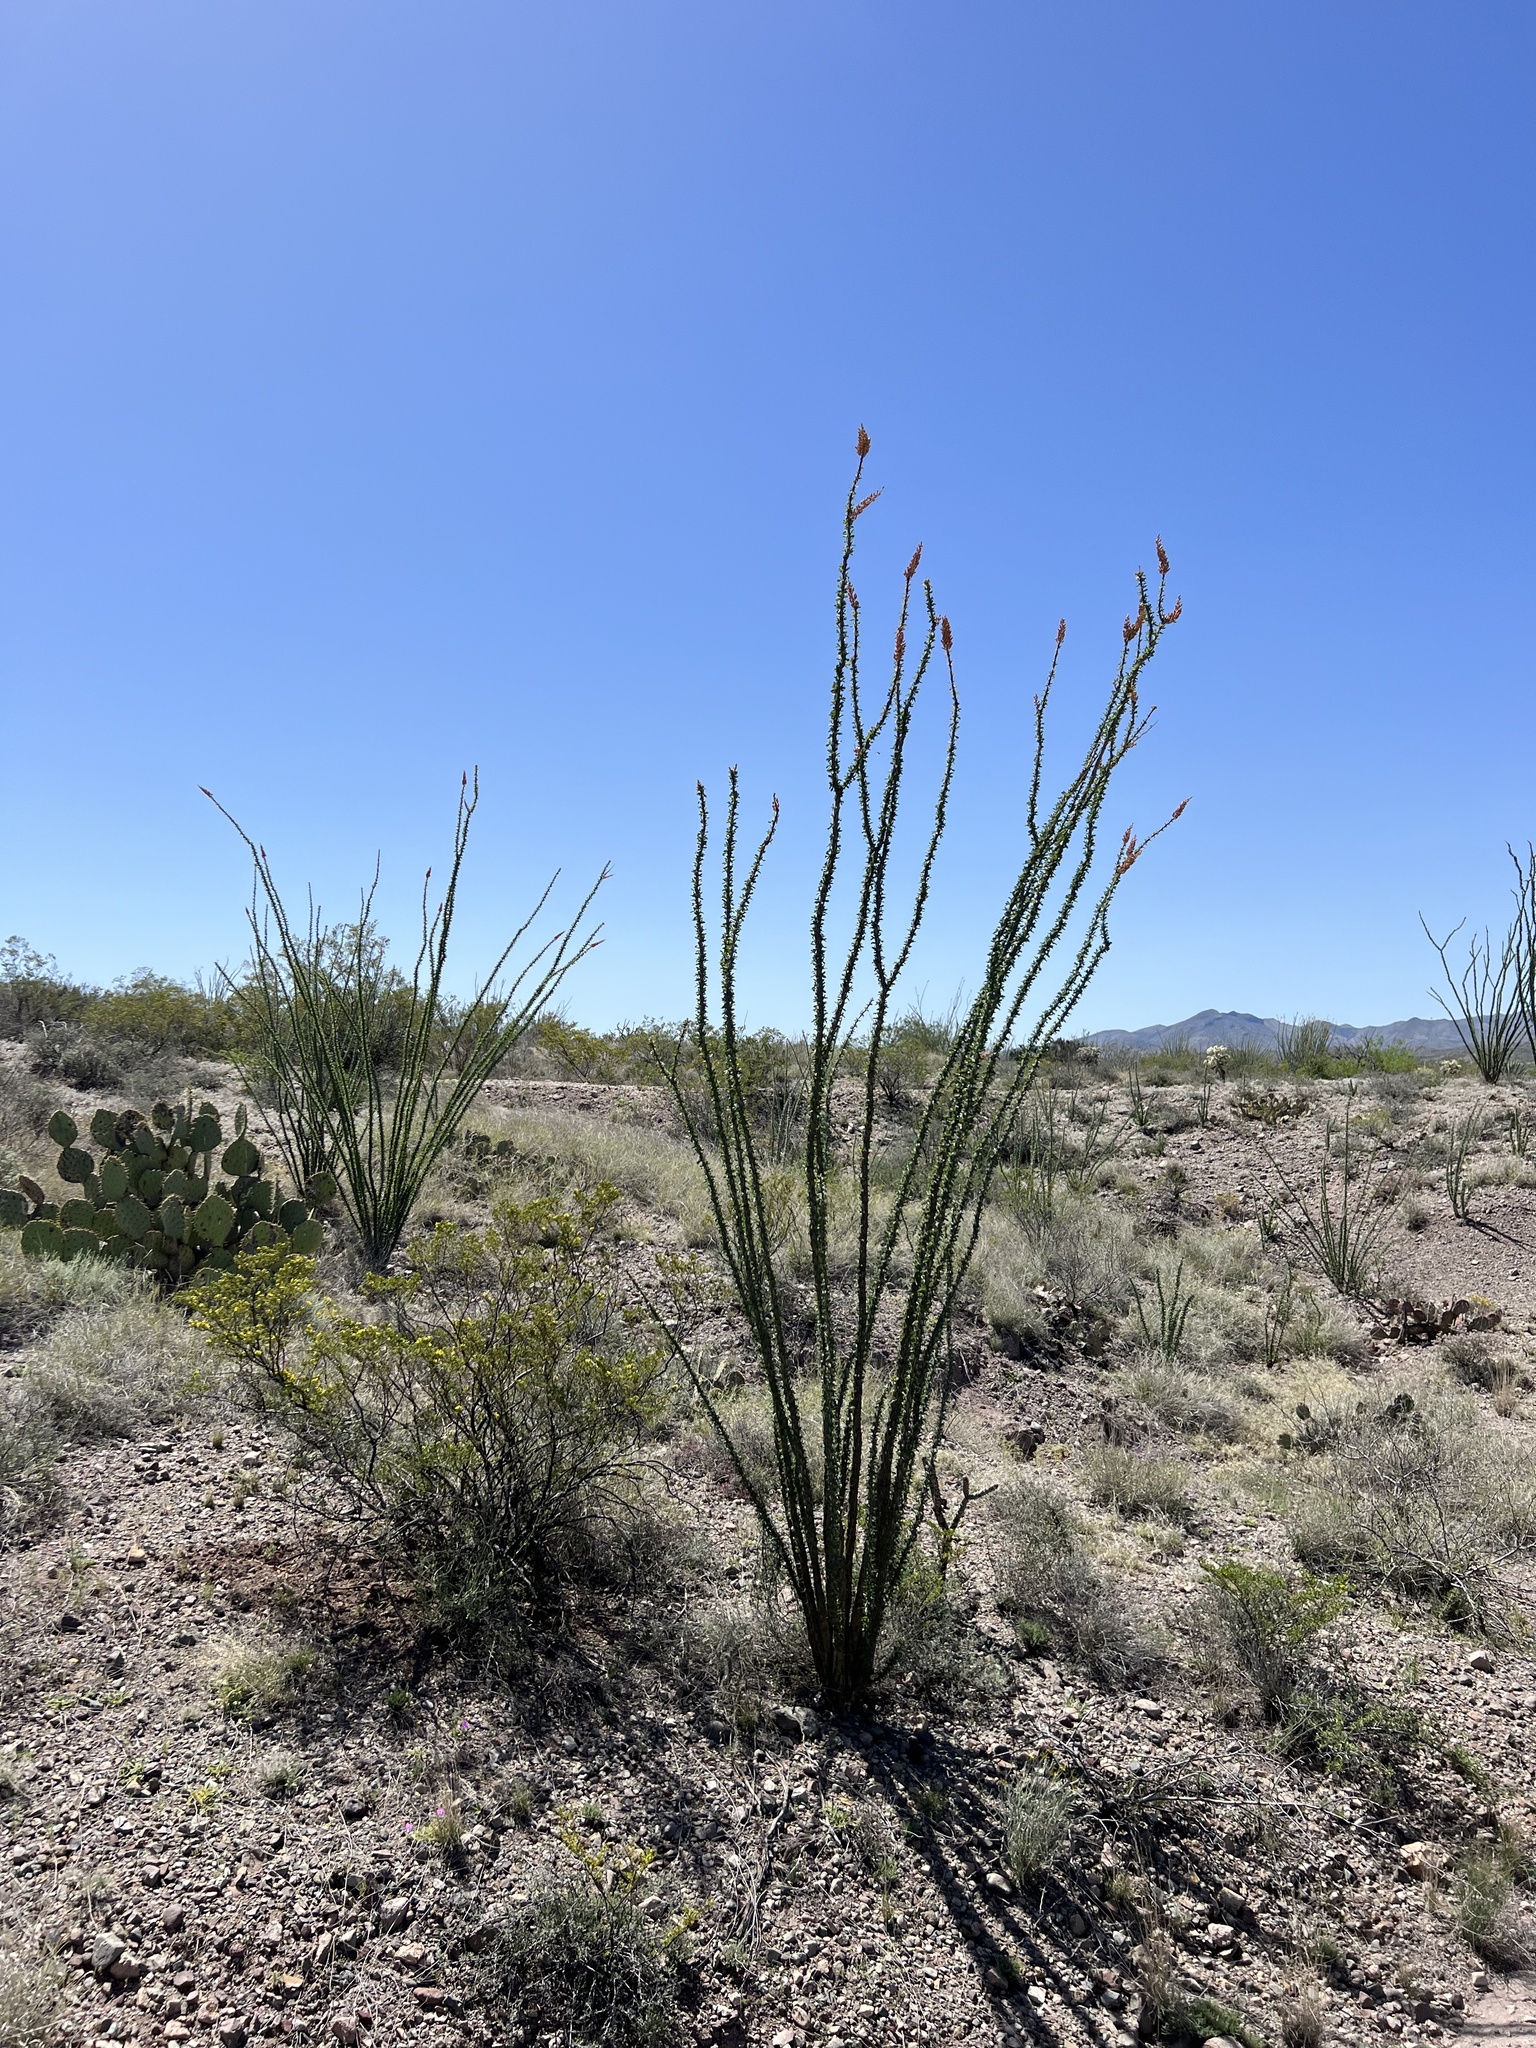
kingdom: Plantae
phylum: Tracheophyta
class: Magnoliopsida
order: Ericales
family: Fouquieriaceae
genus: Fouquieria
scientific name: Fouquieria splendens
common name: Vine-cactus
